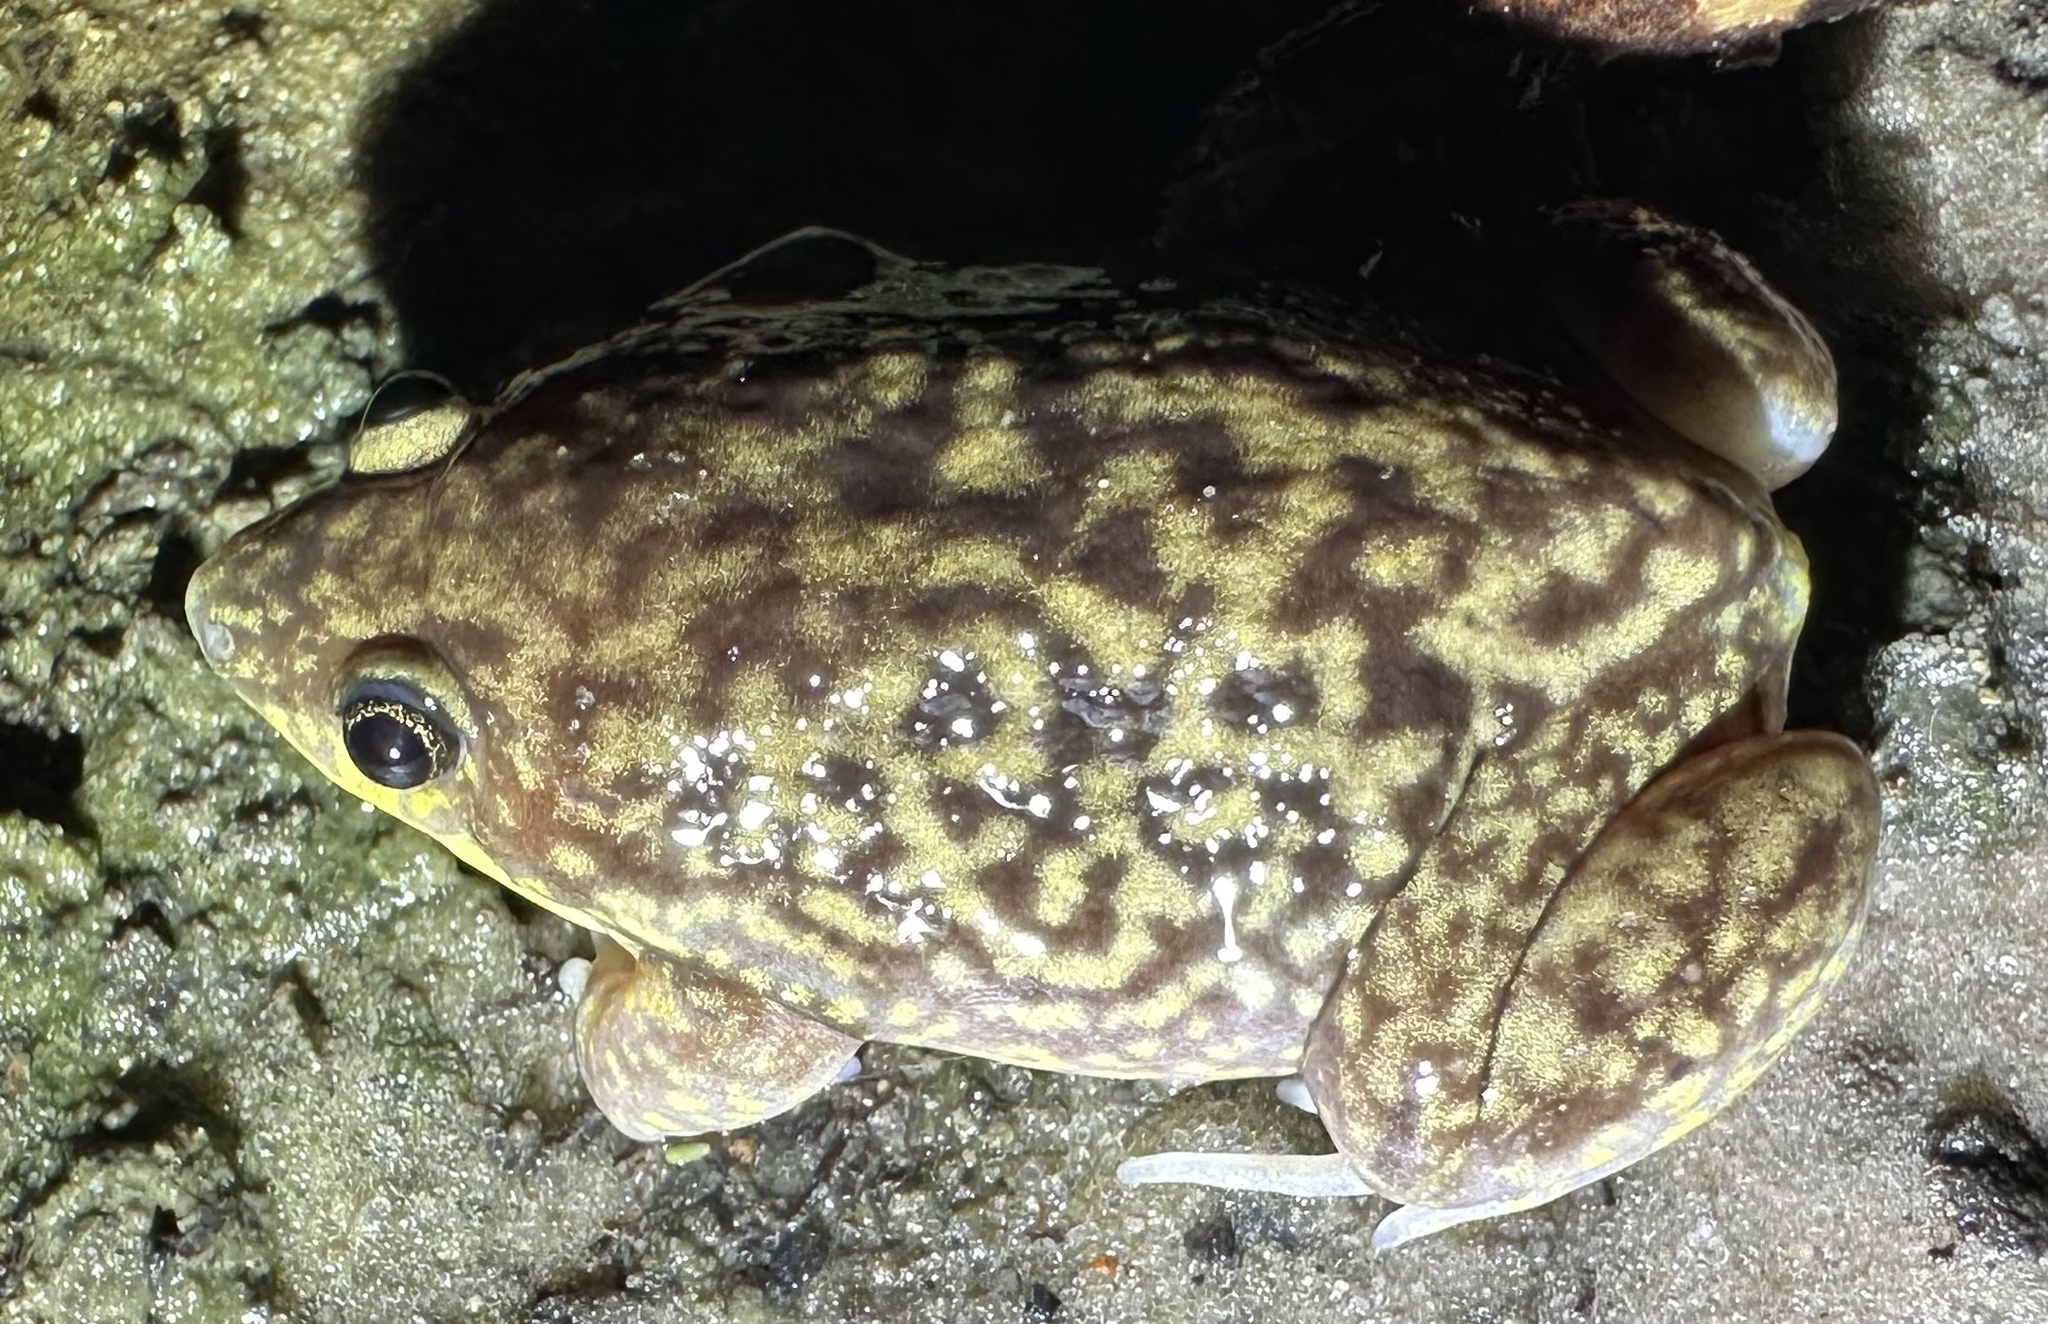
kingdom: Animalia
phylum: Chordata
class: Amphibia
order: Anura
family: Hemisotidae
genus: Hemisus
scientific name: Hemisus marmoratus
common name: Mottled shovel-nosed frog
